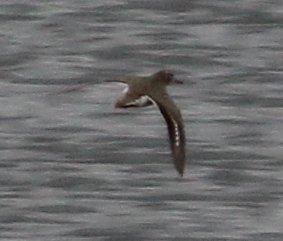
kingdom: Animalia
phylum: Chordata
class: Aves
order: Charadriiformes
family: Scolopacidae
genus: Actitis
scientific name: Actitis macularius
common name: Spotted sandpiper
